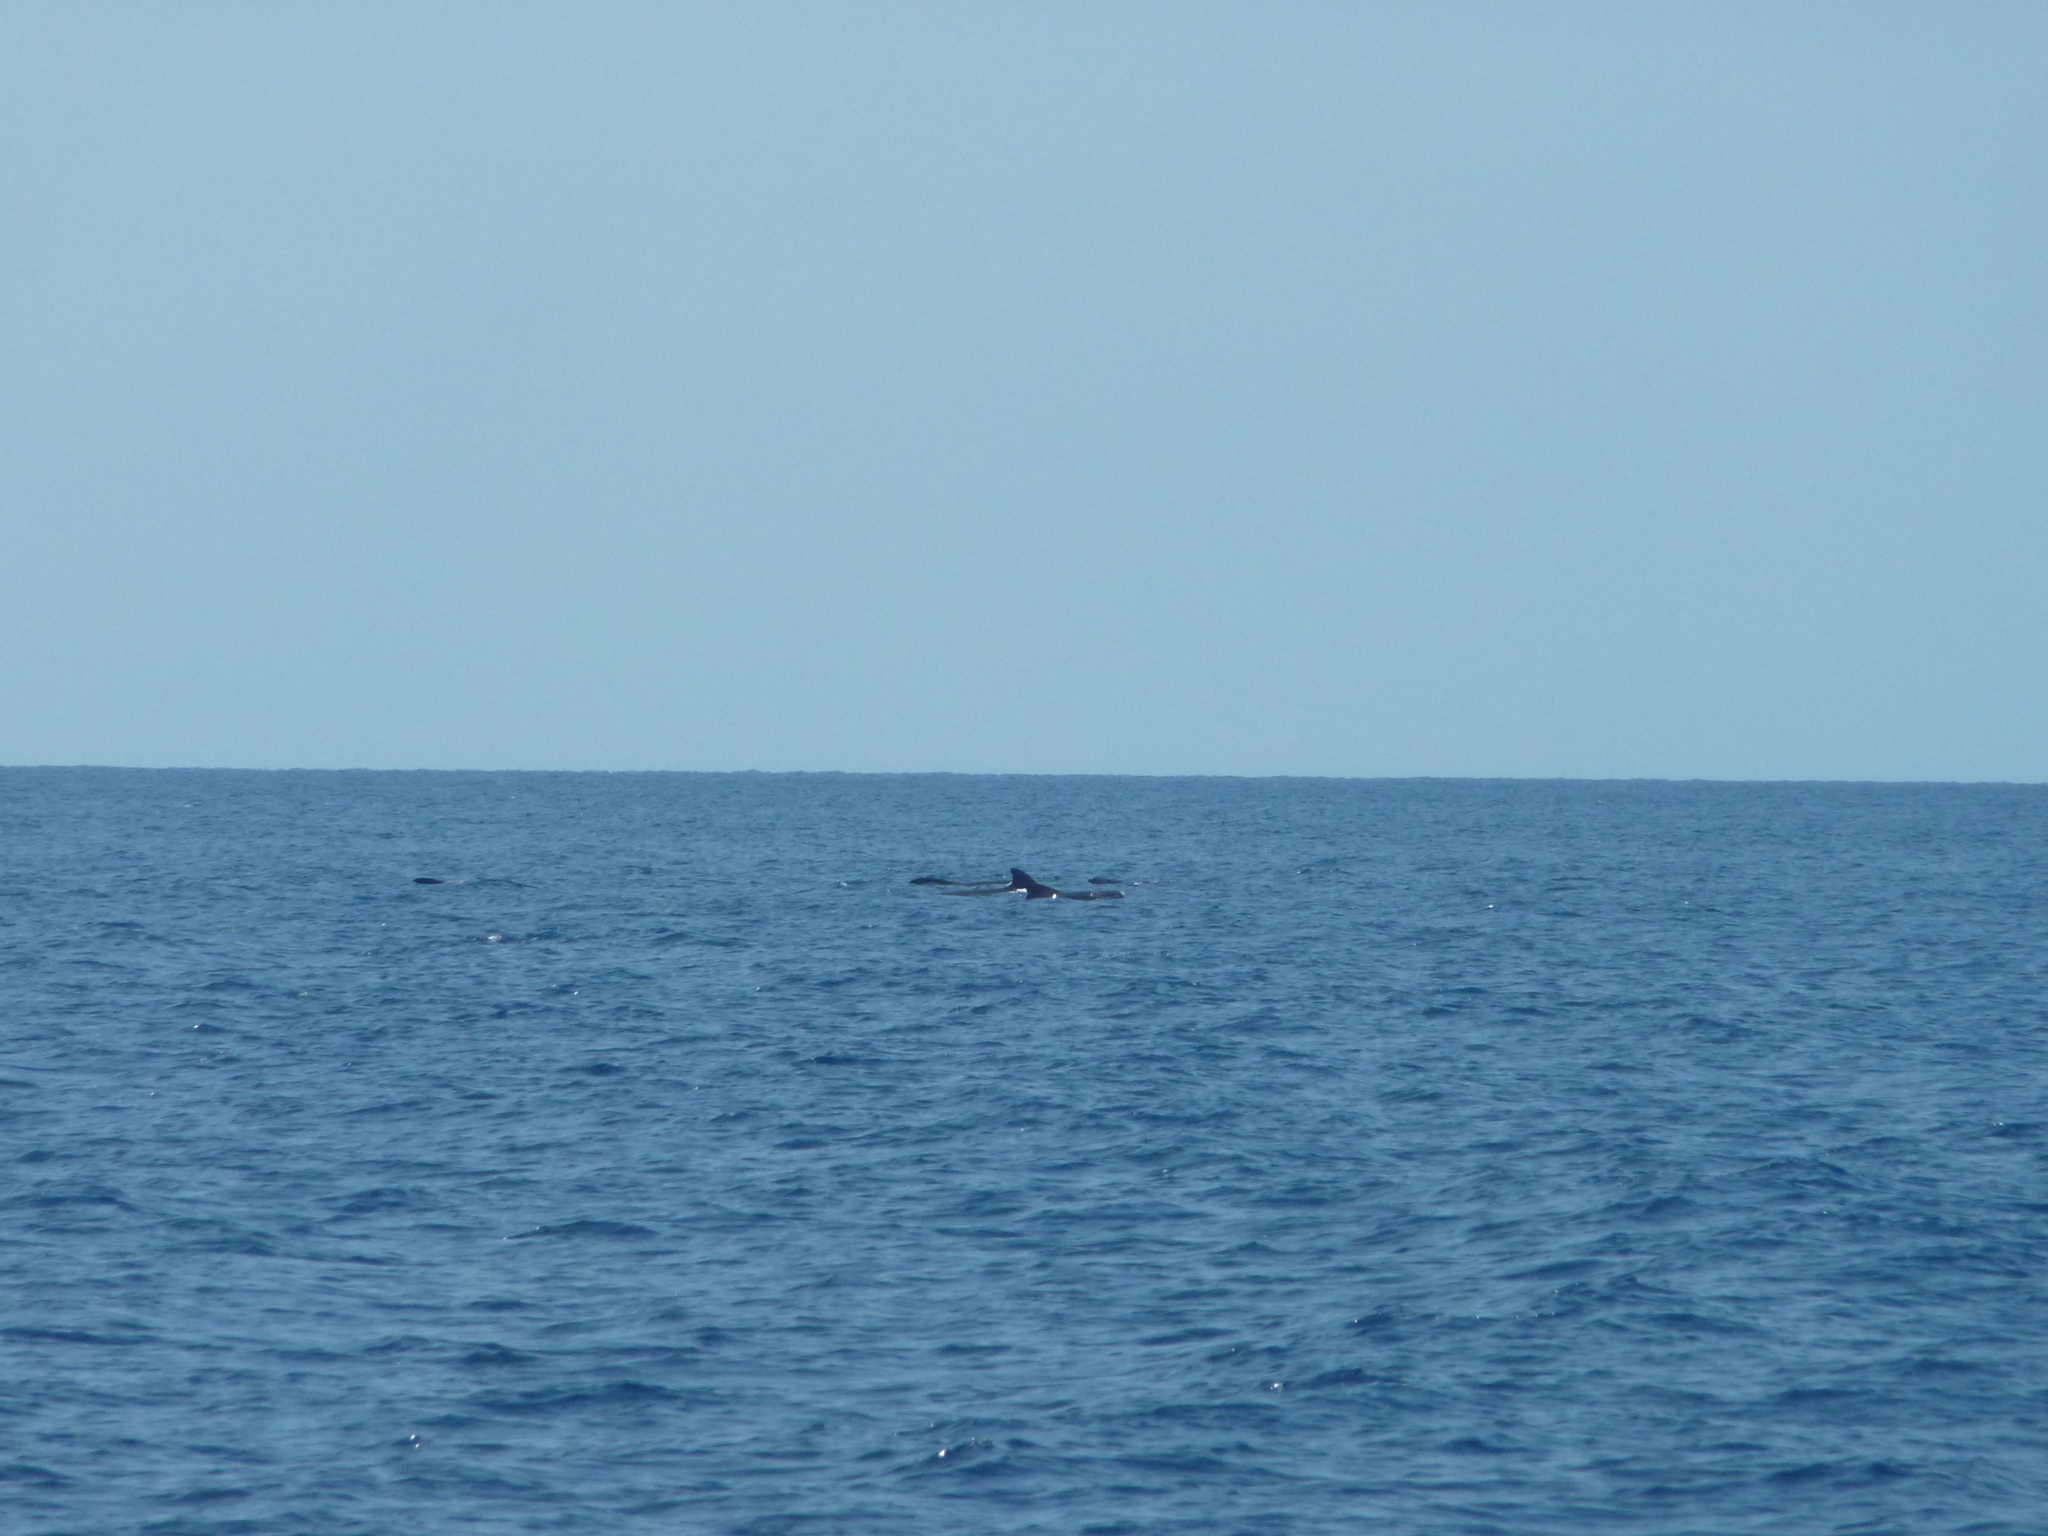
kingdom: Animalia
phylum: Chordata
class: Mammalia
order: Cetacea
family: Delphinidae
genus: Globicephala
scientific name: Globicephala macrorhynchus
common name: Short-finned pilot whale
